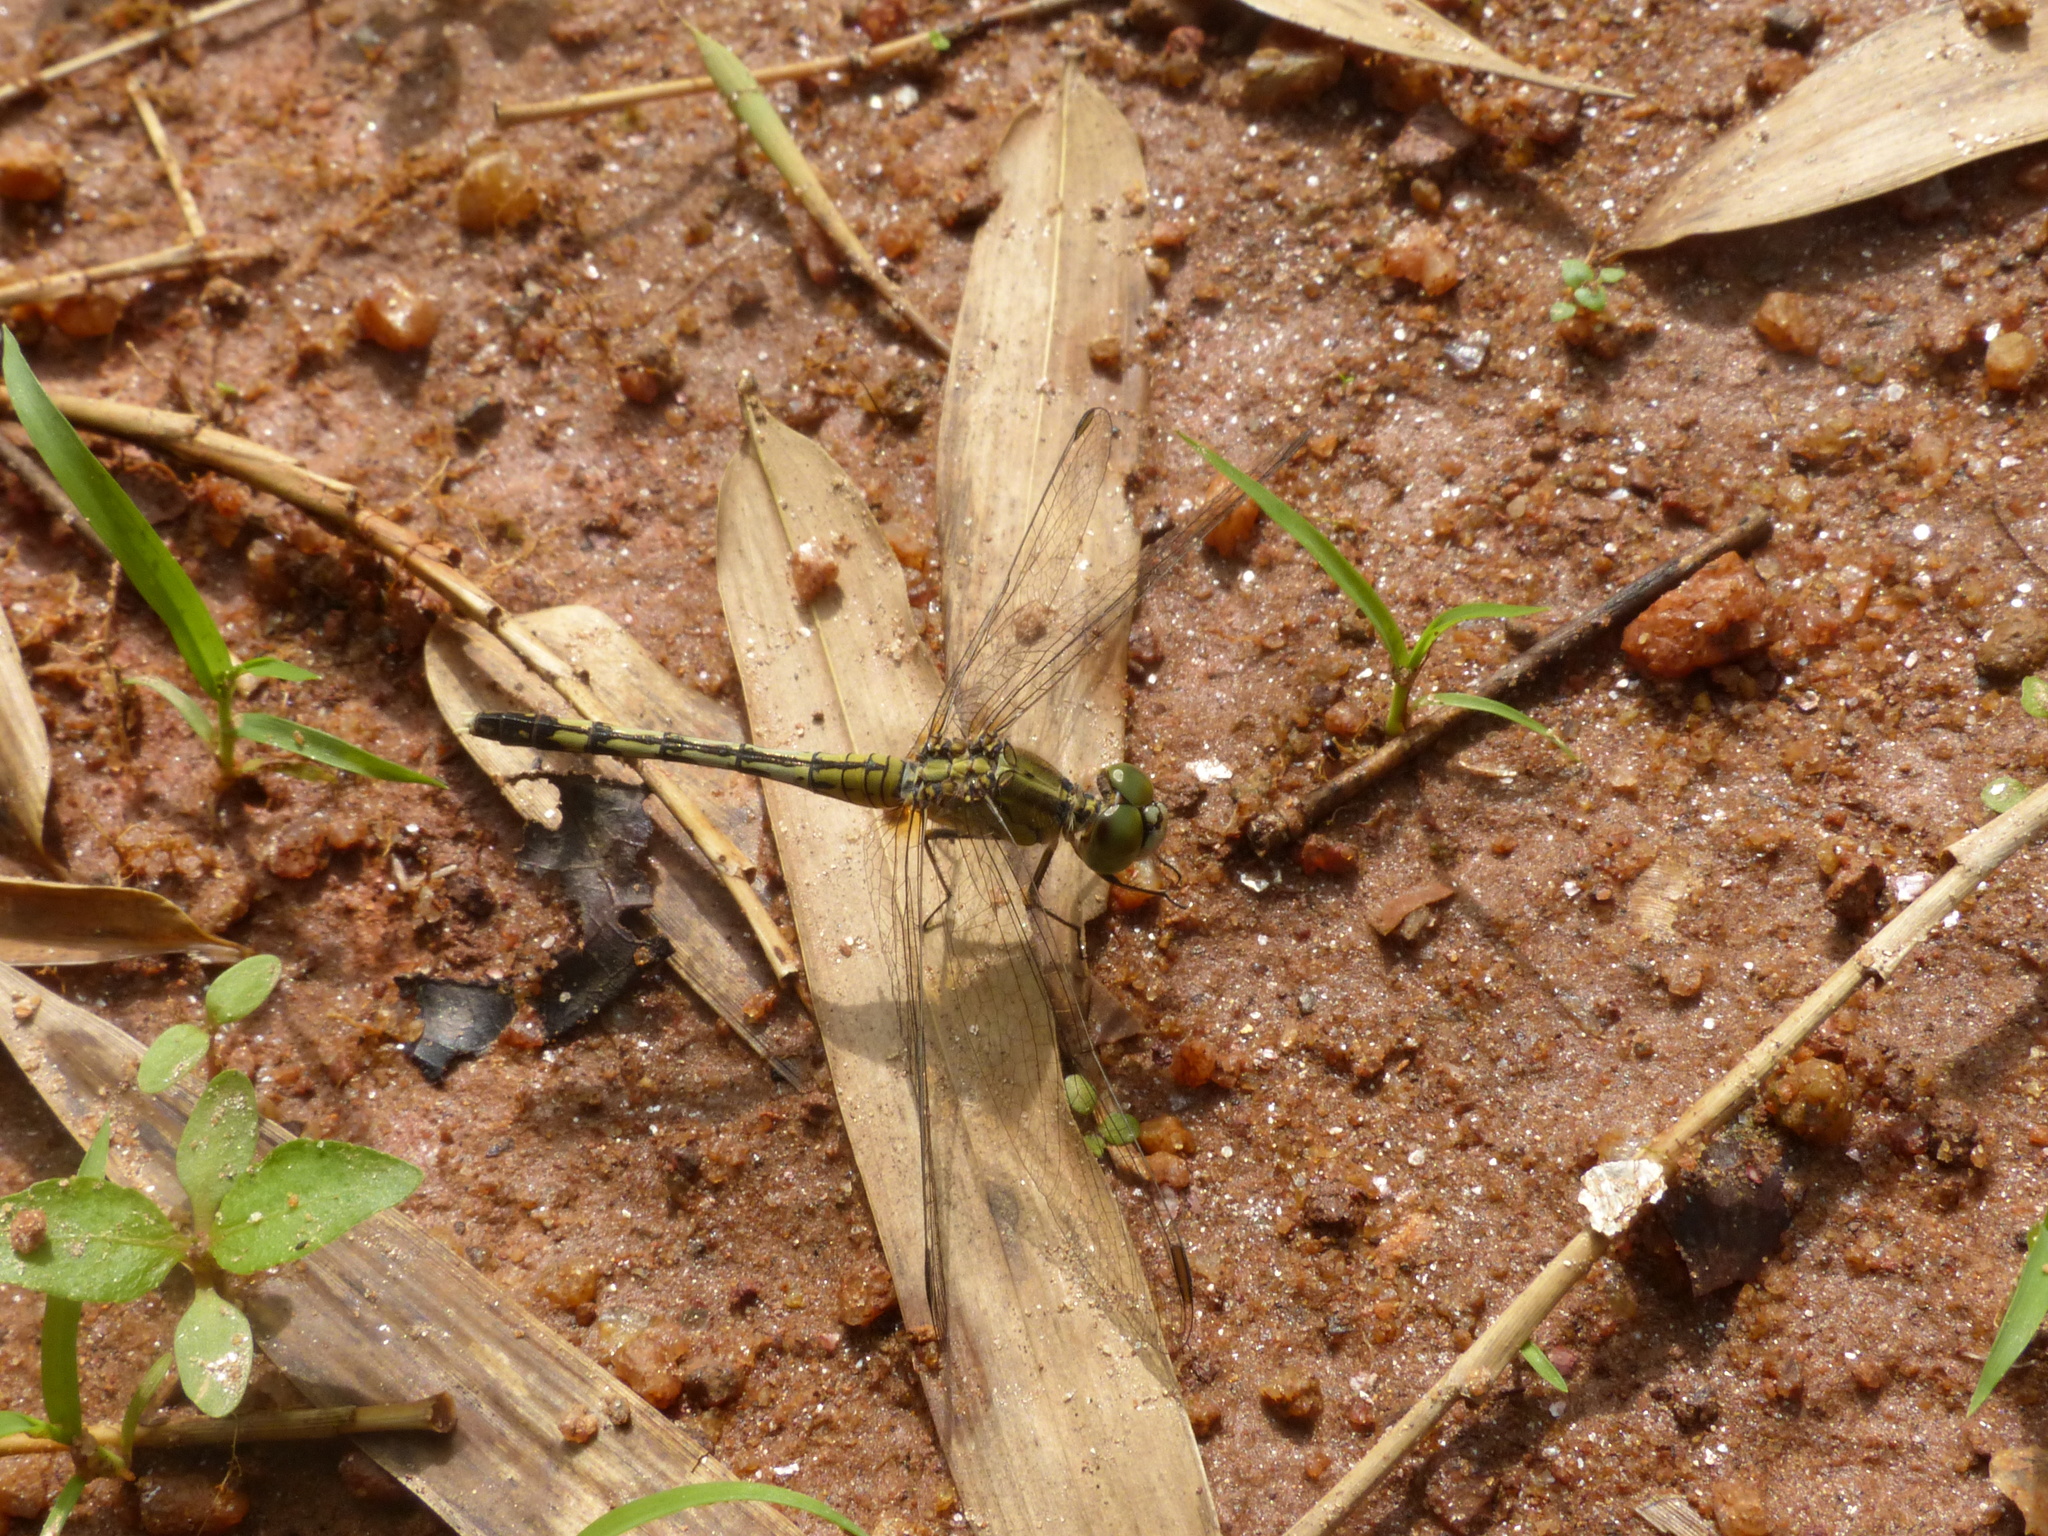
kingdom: Animalia
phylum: Arthropoda
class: Insecta
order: Odonata
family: Libellulidae
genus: Diplacodes
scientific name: Diplacodes trivialis
